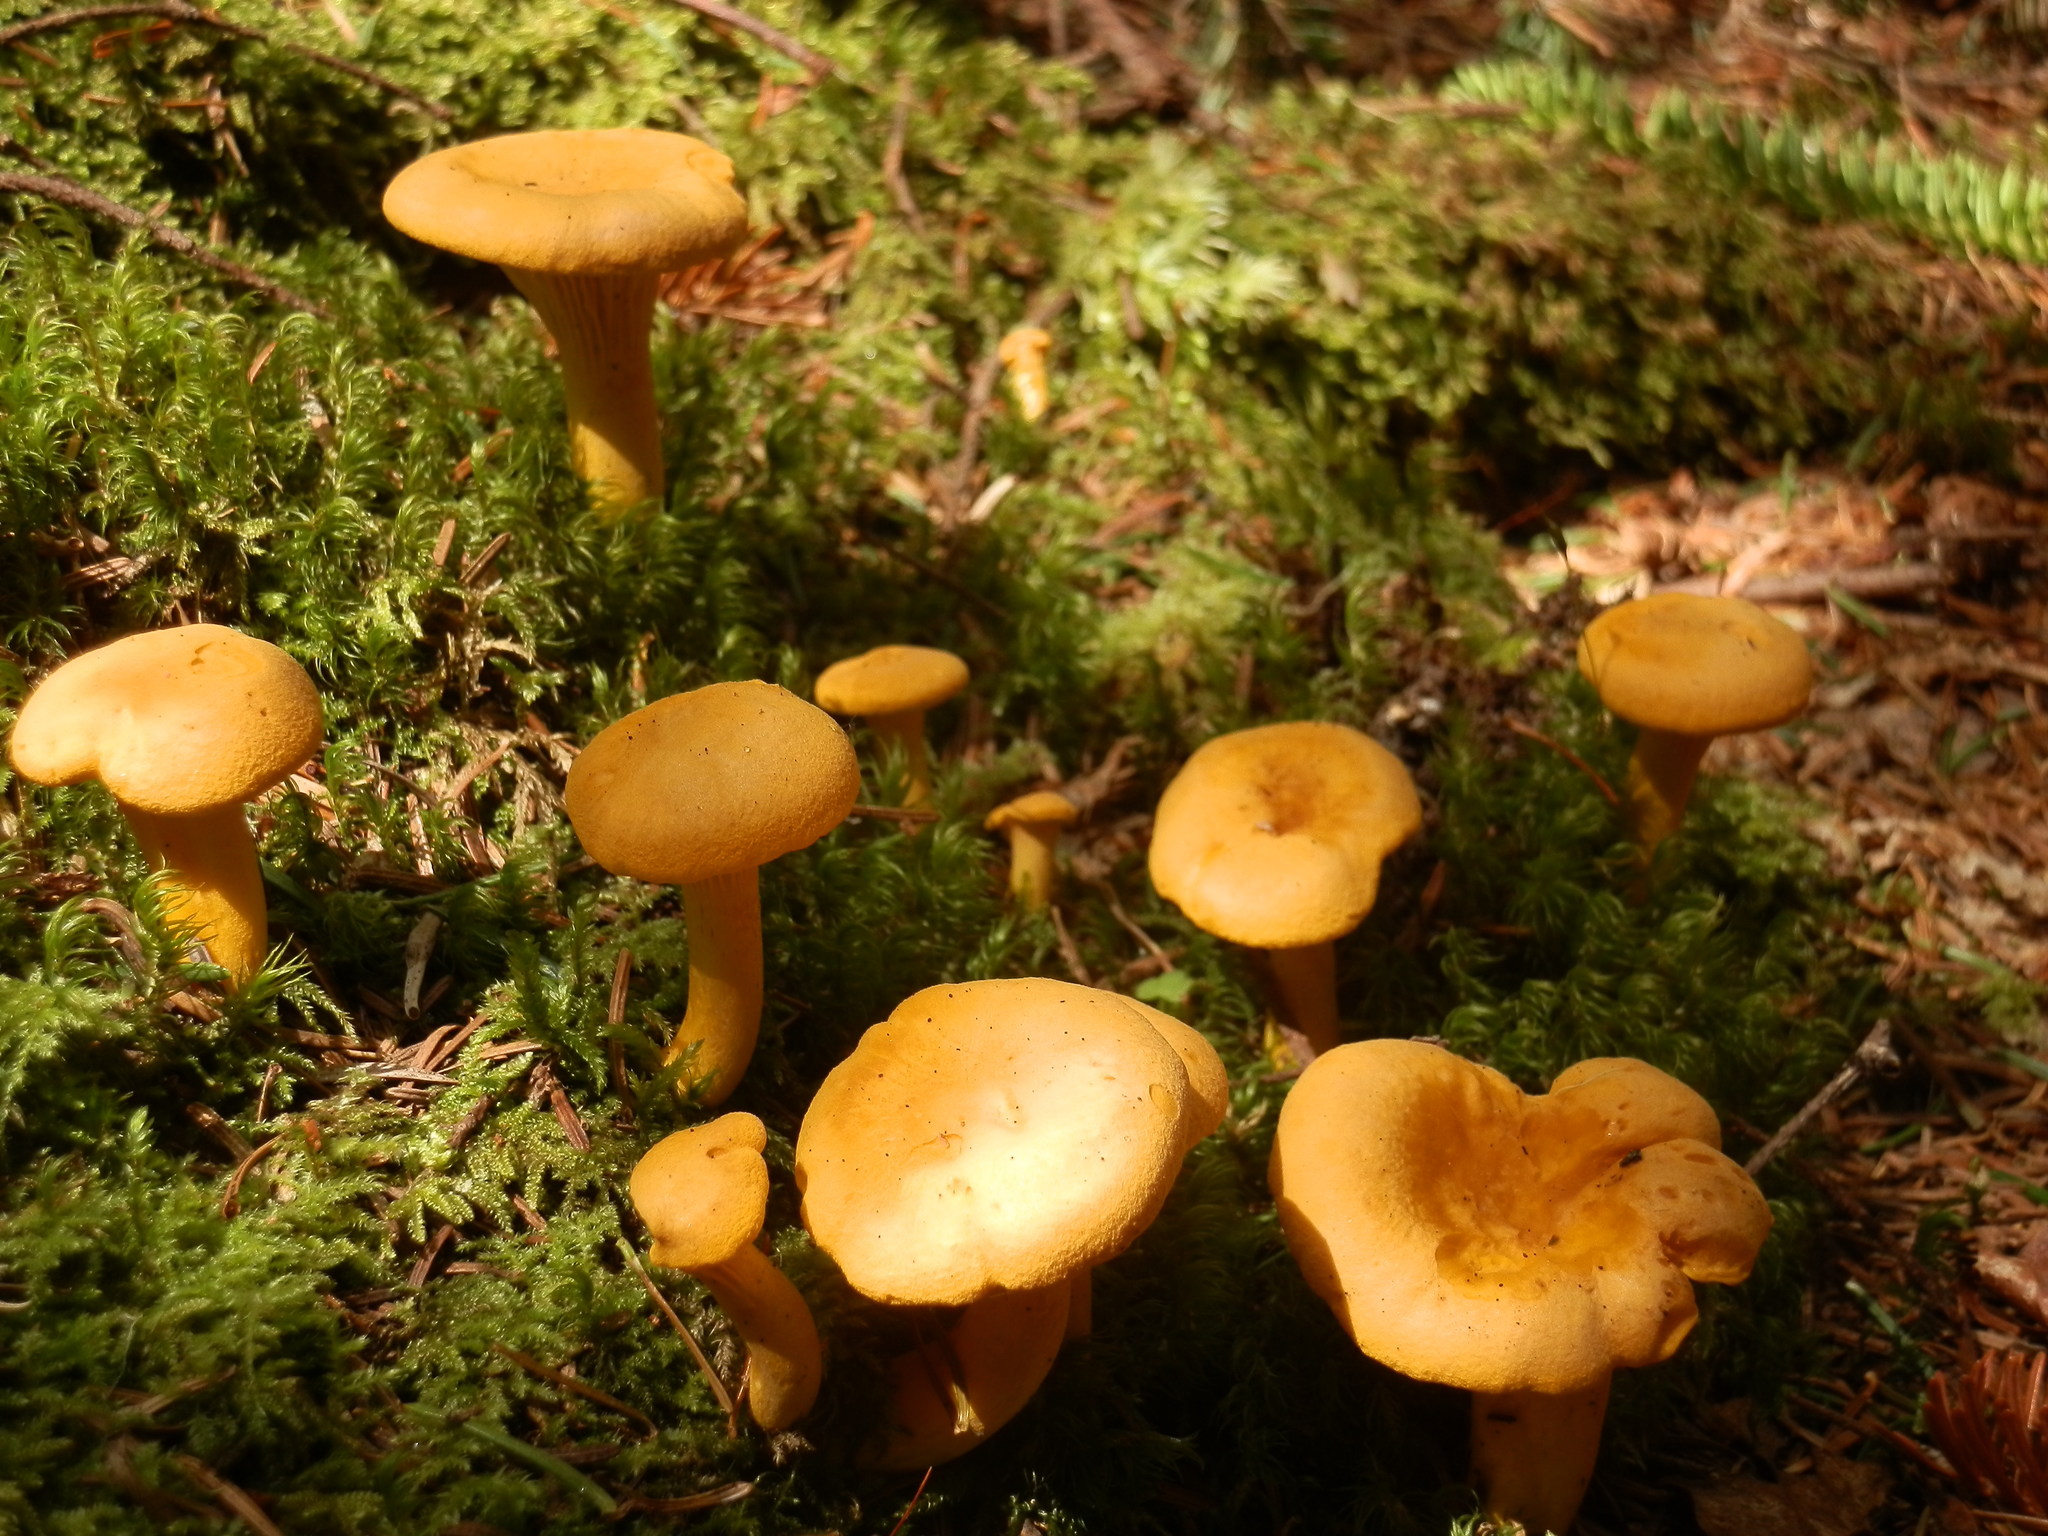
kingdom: Fungi
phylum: Basidiomycota
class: Agaricomycetes
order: Cantharellales
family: Hydnaceae
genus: Cantharellus
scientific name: Cantharellus enelensis
